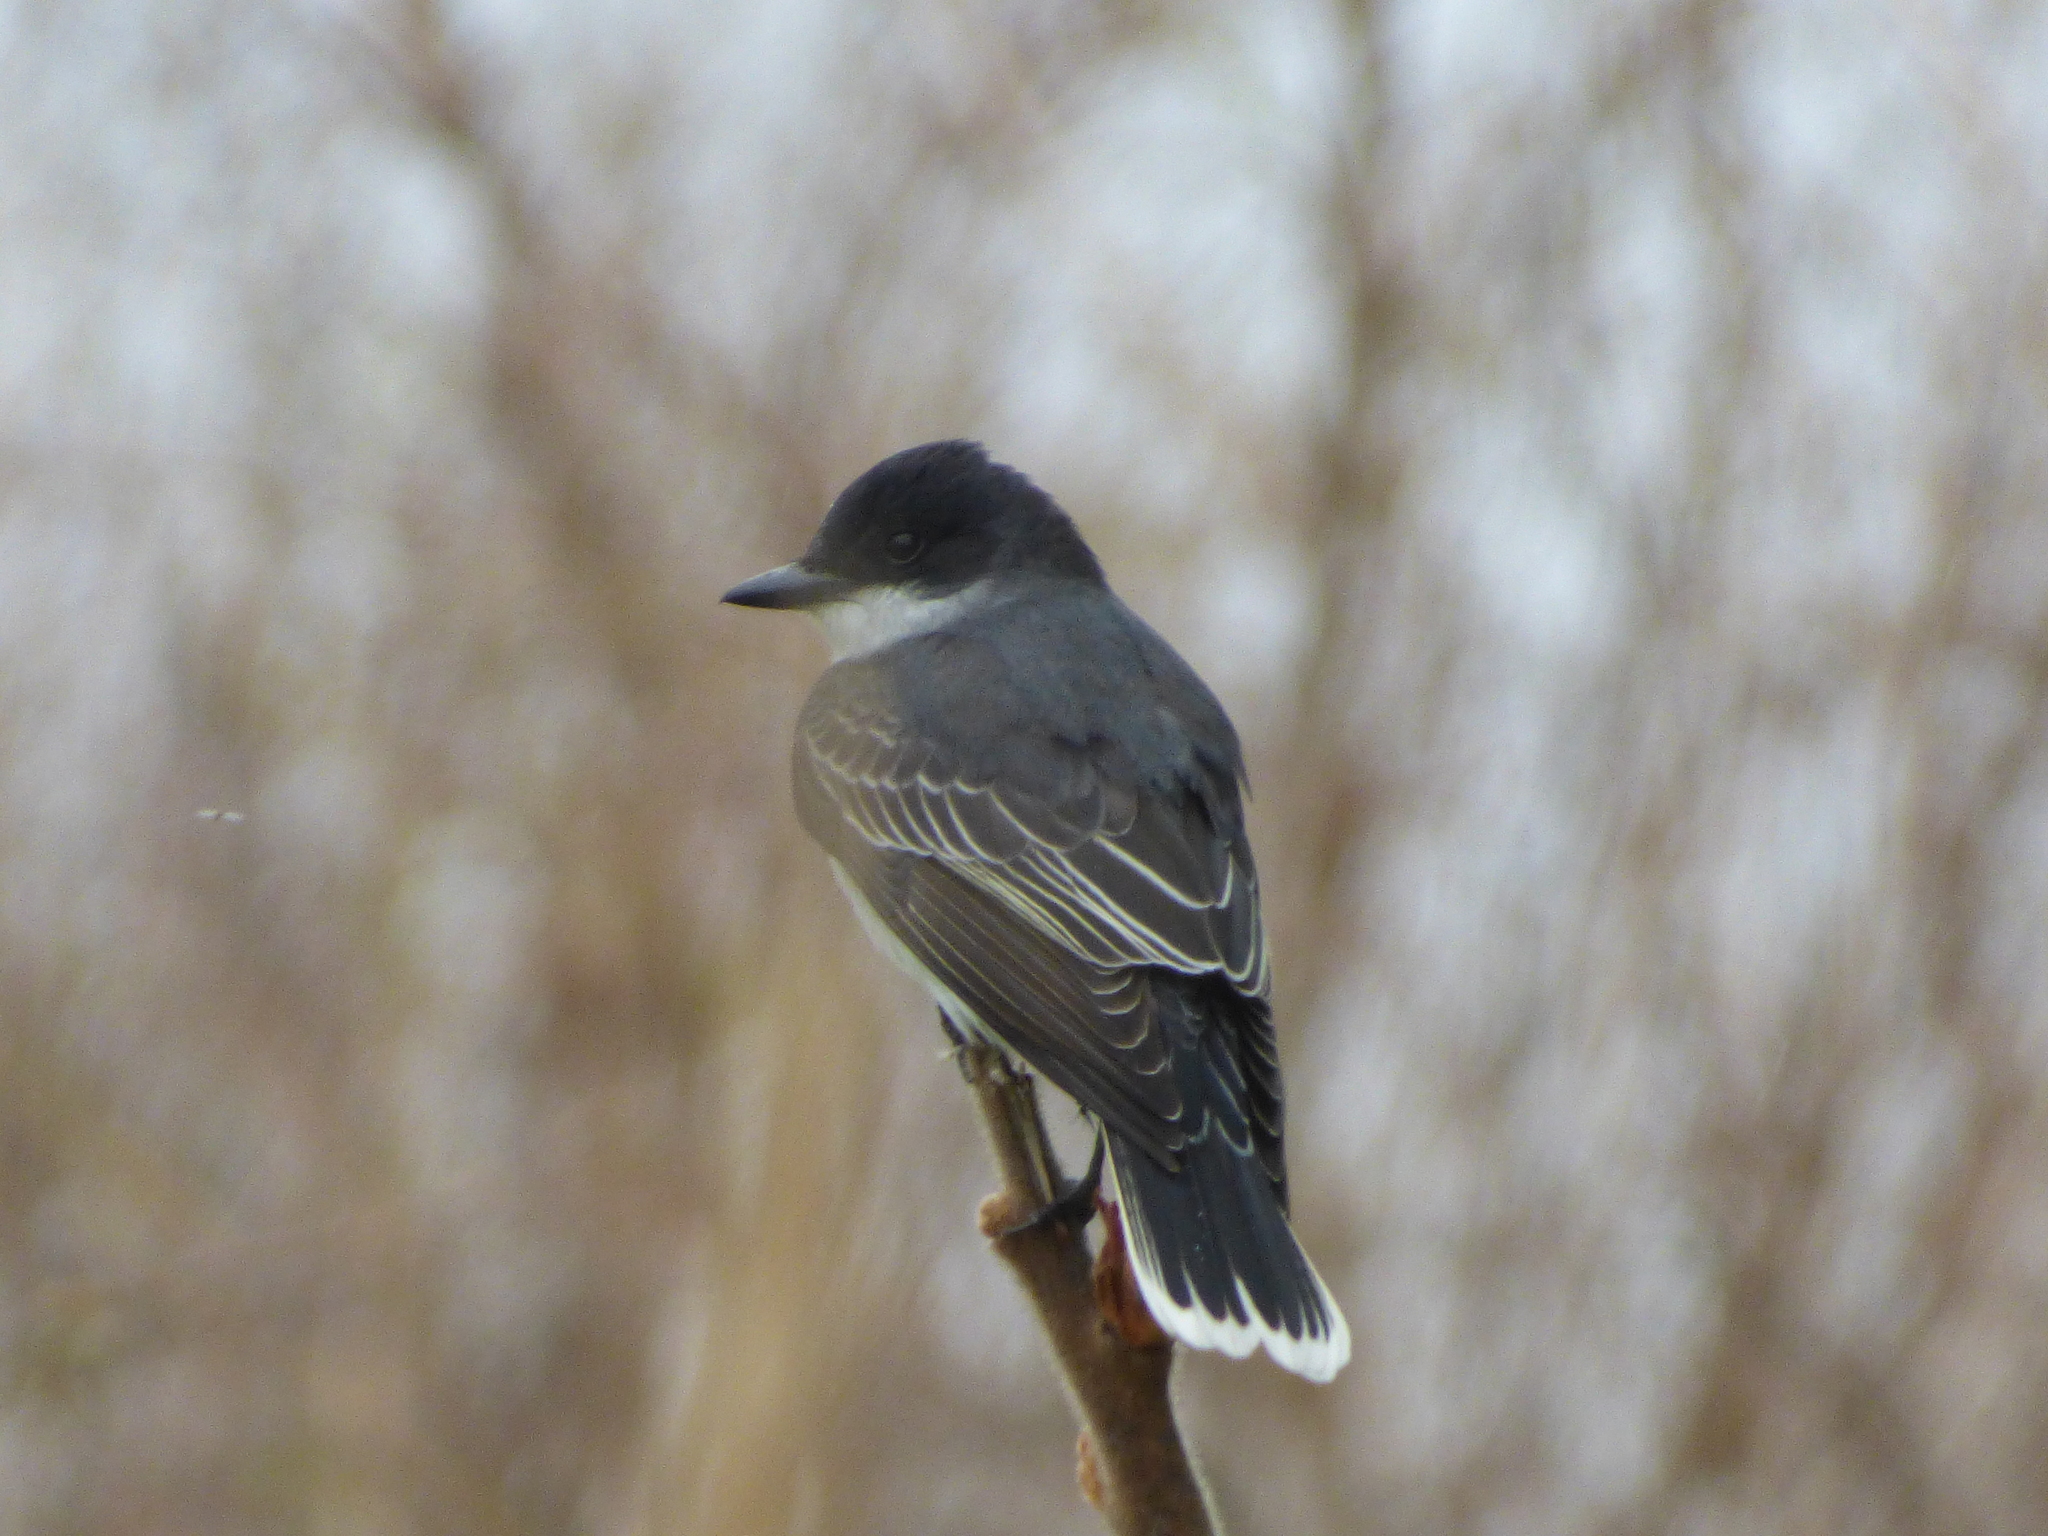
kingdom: Animalia
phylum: Chordata
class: Aves
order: Passeriformes
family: Tyrannidae
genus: Tyrannus
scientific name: Tyrannus tyrannus
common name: Eastern kingbird
